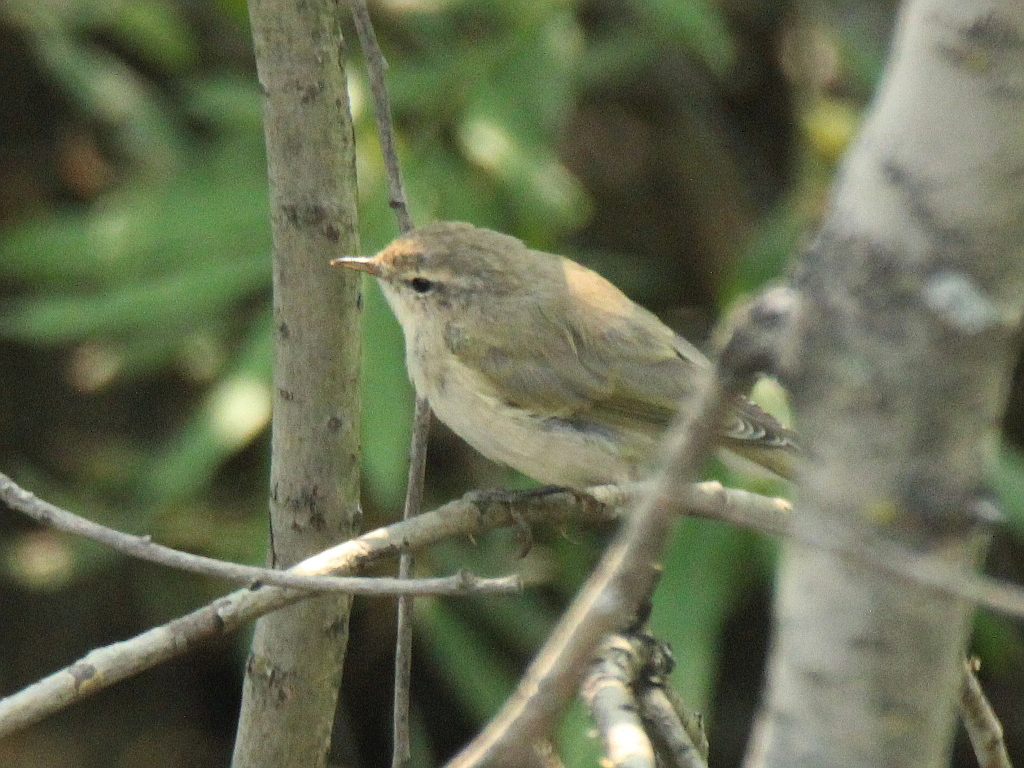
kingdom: Animalia
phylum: Chordata
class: Aves
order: Passeriformes
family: Phylloscopidae
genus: Phylloscopus
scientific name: Phylloscopus collybita
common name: Common chiffchaff
